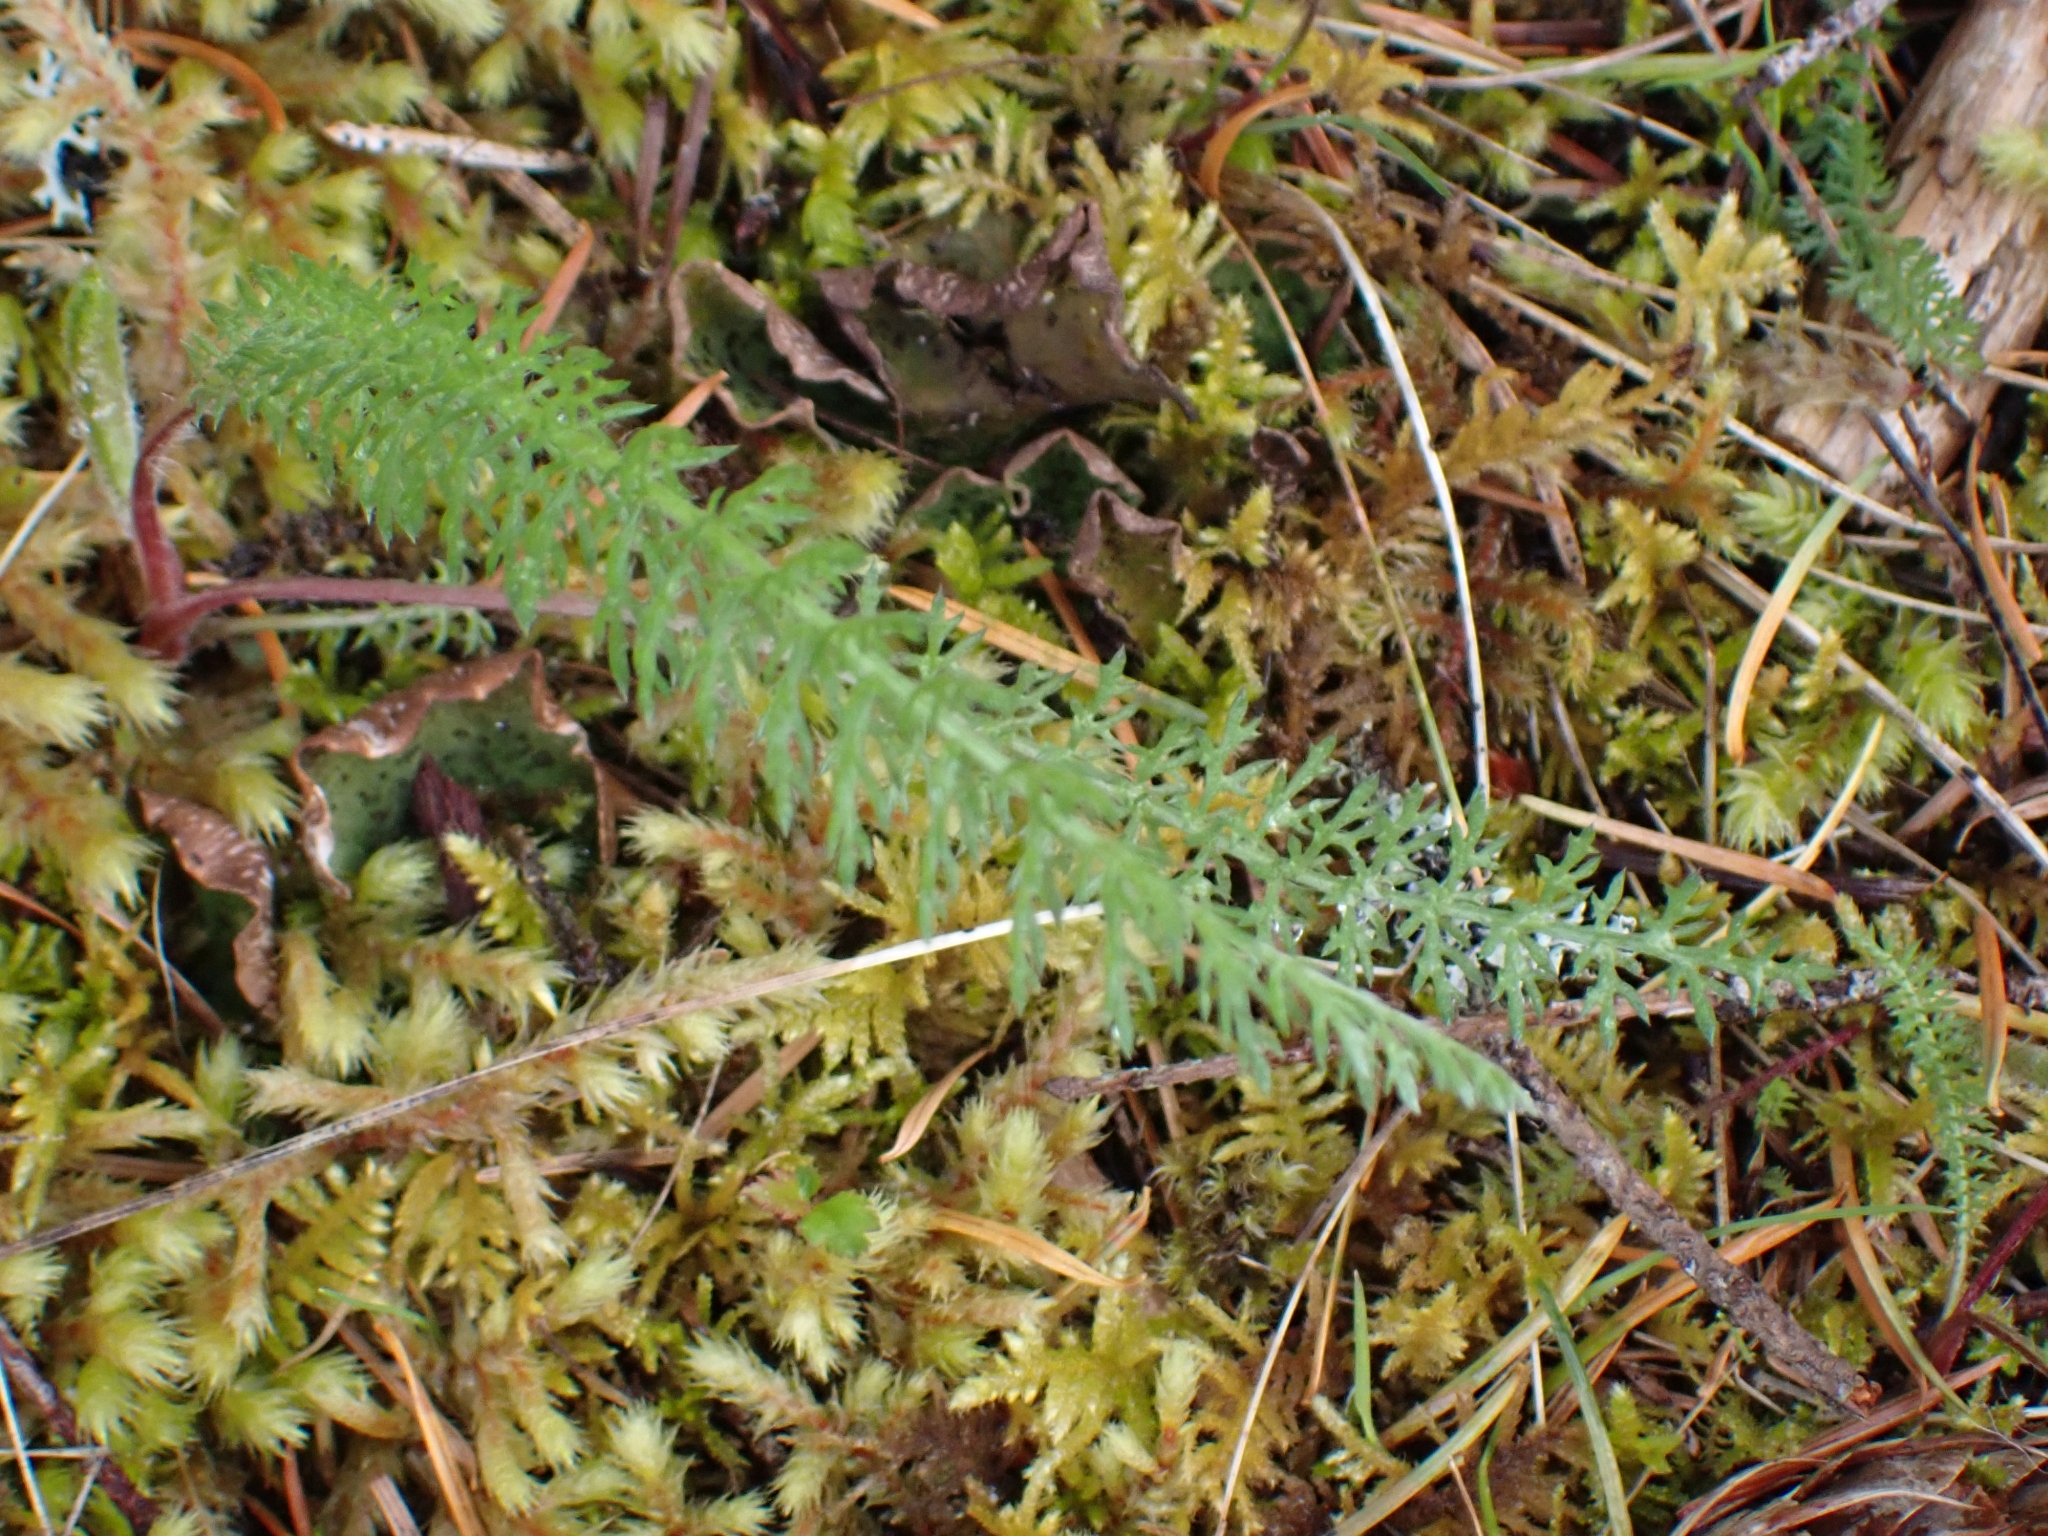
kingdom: Plantae
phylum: Tracheophyta
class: Magnoliopsida
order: Asterales
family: Asteraceae
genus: Achillea
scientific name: Achillea millefolium
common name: Yarrow
